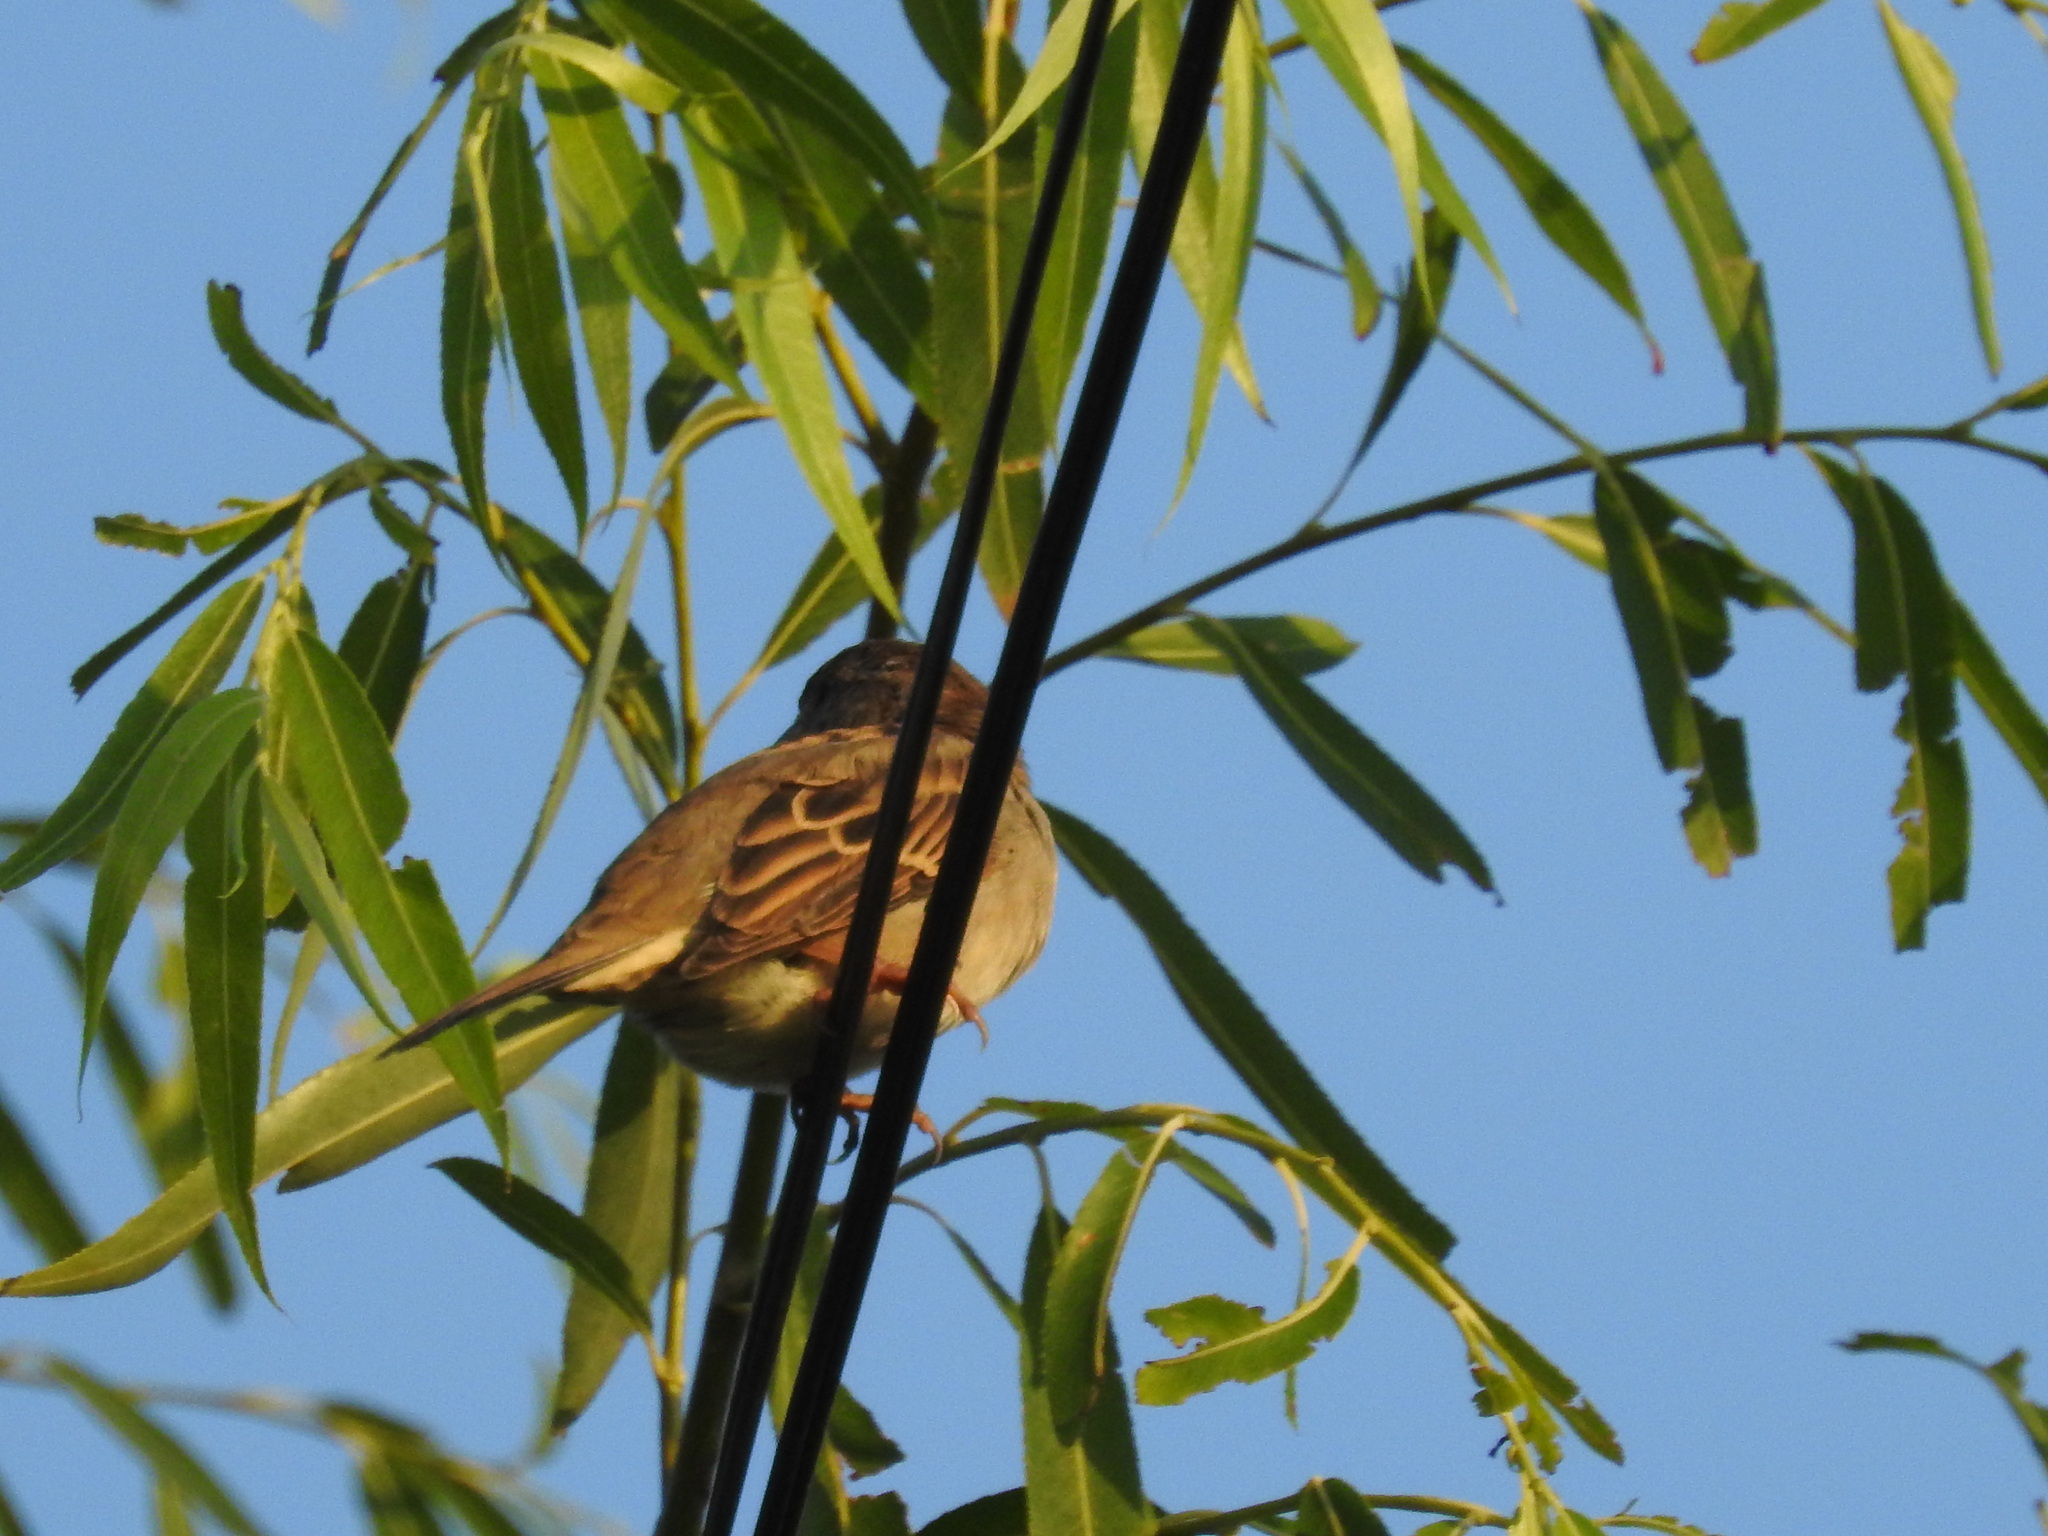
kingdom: Animalia
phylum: Chordata
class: Aves
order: Passeriformes
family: Passeridae
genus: Passer
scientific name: Passer domesticus
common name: House sparrow
